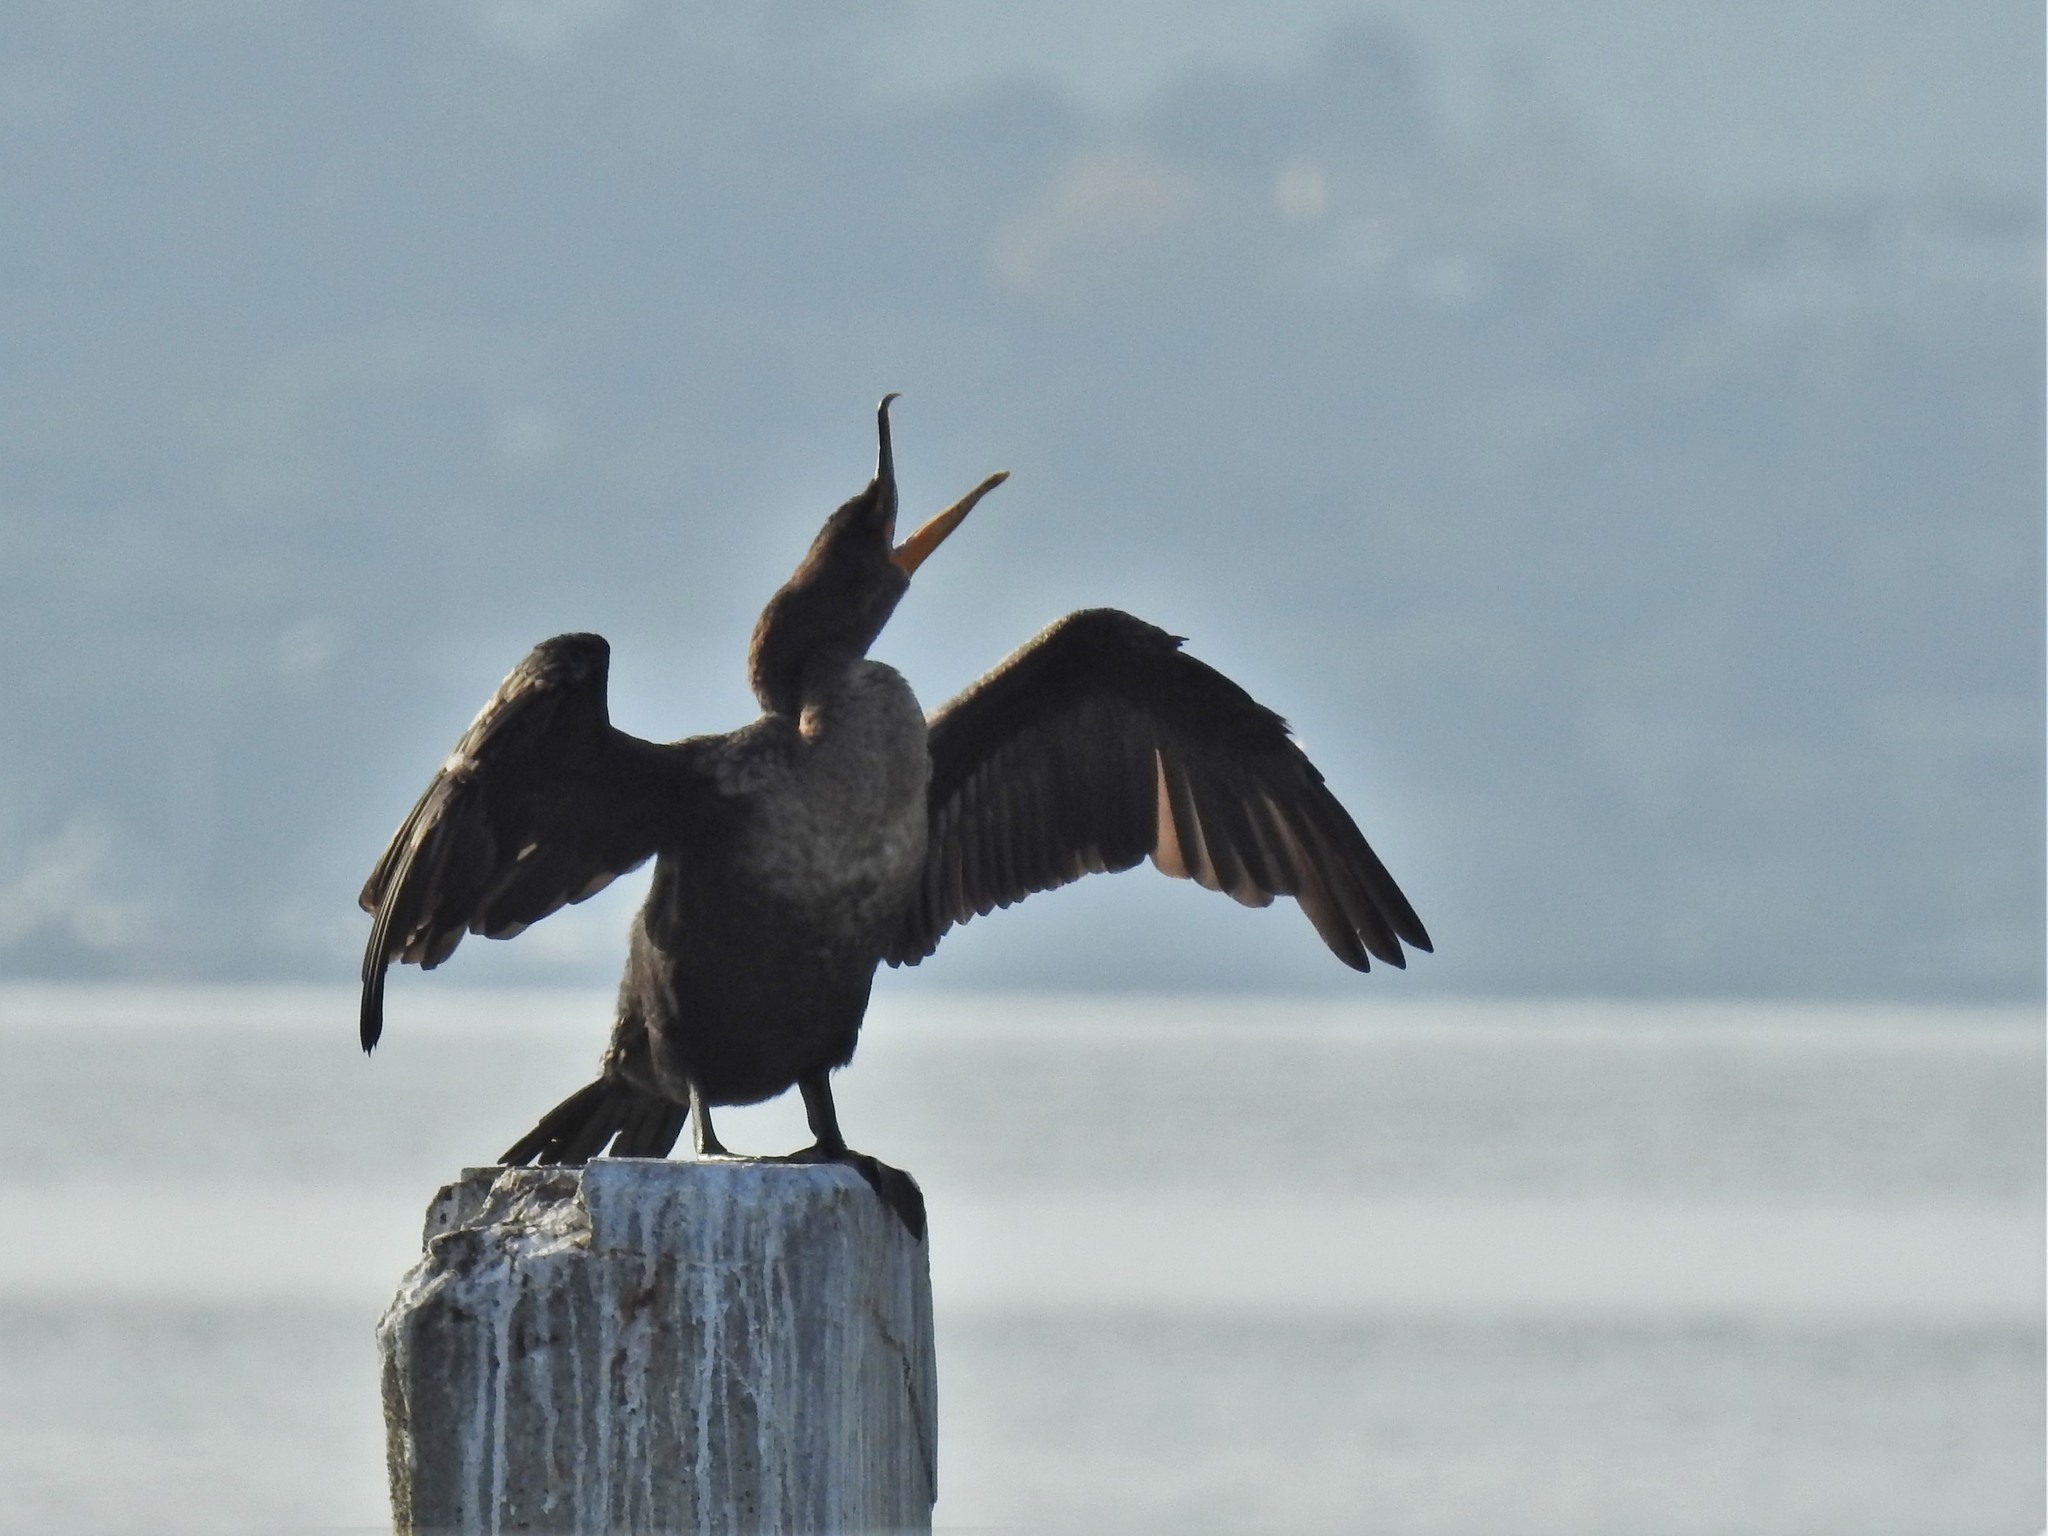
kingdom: Animalia
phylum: Chordata
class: Aves
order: Suliformes
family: Phalacrocoracidae
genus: Phalacrocorax
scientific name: Phalacrocorax auritus
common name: Double-crested cormorant
